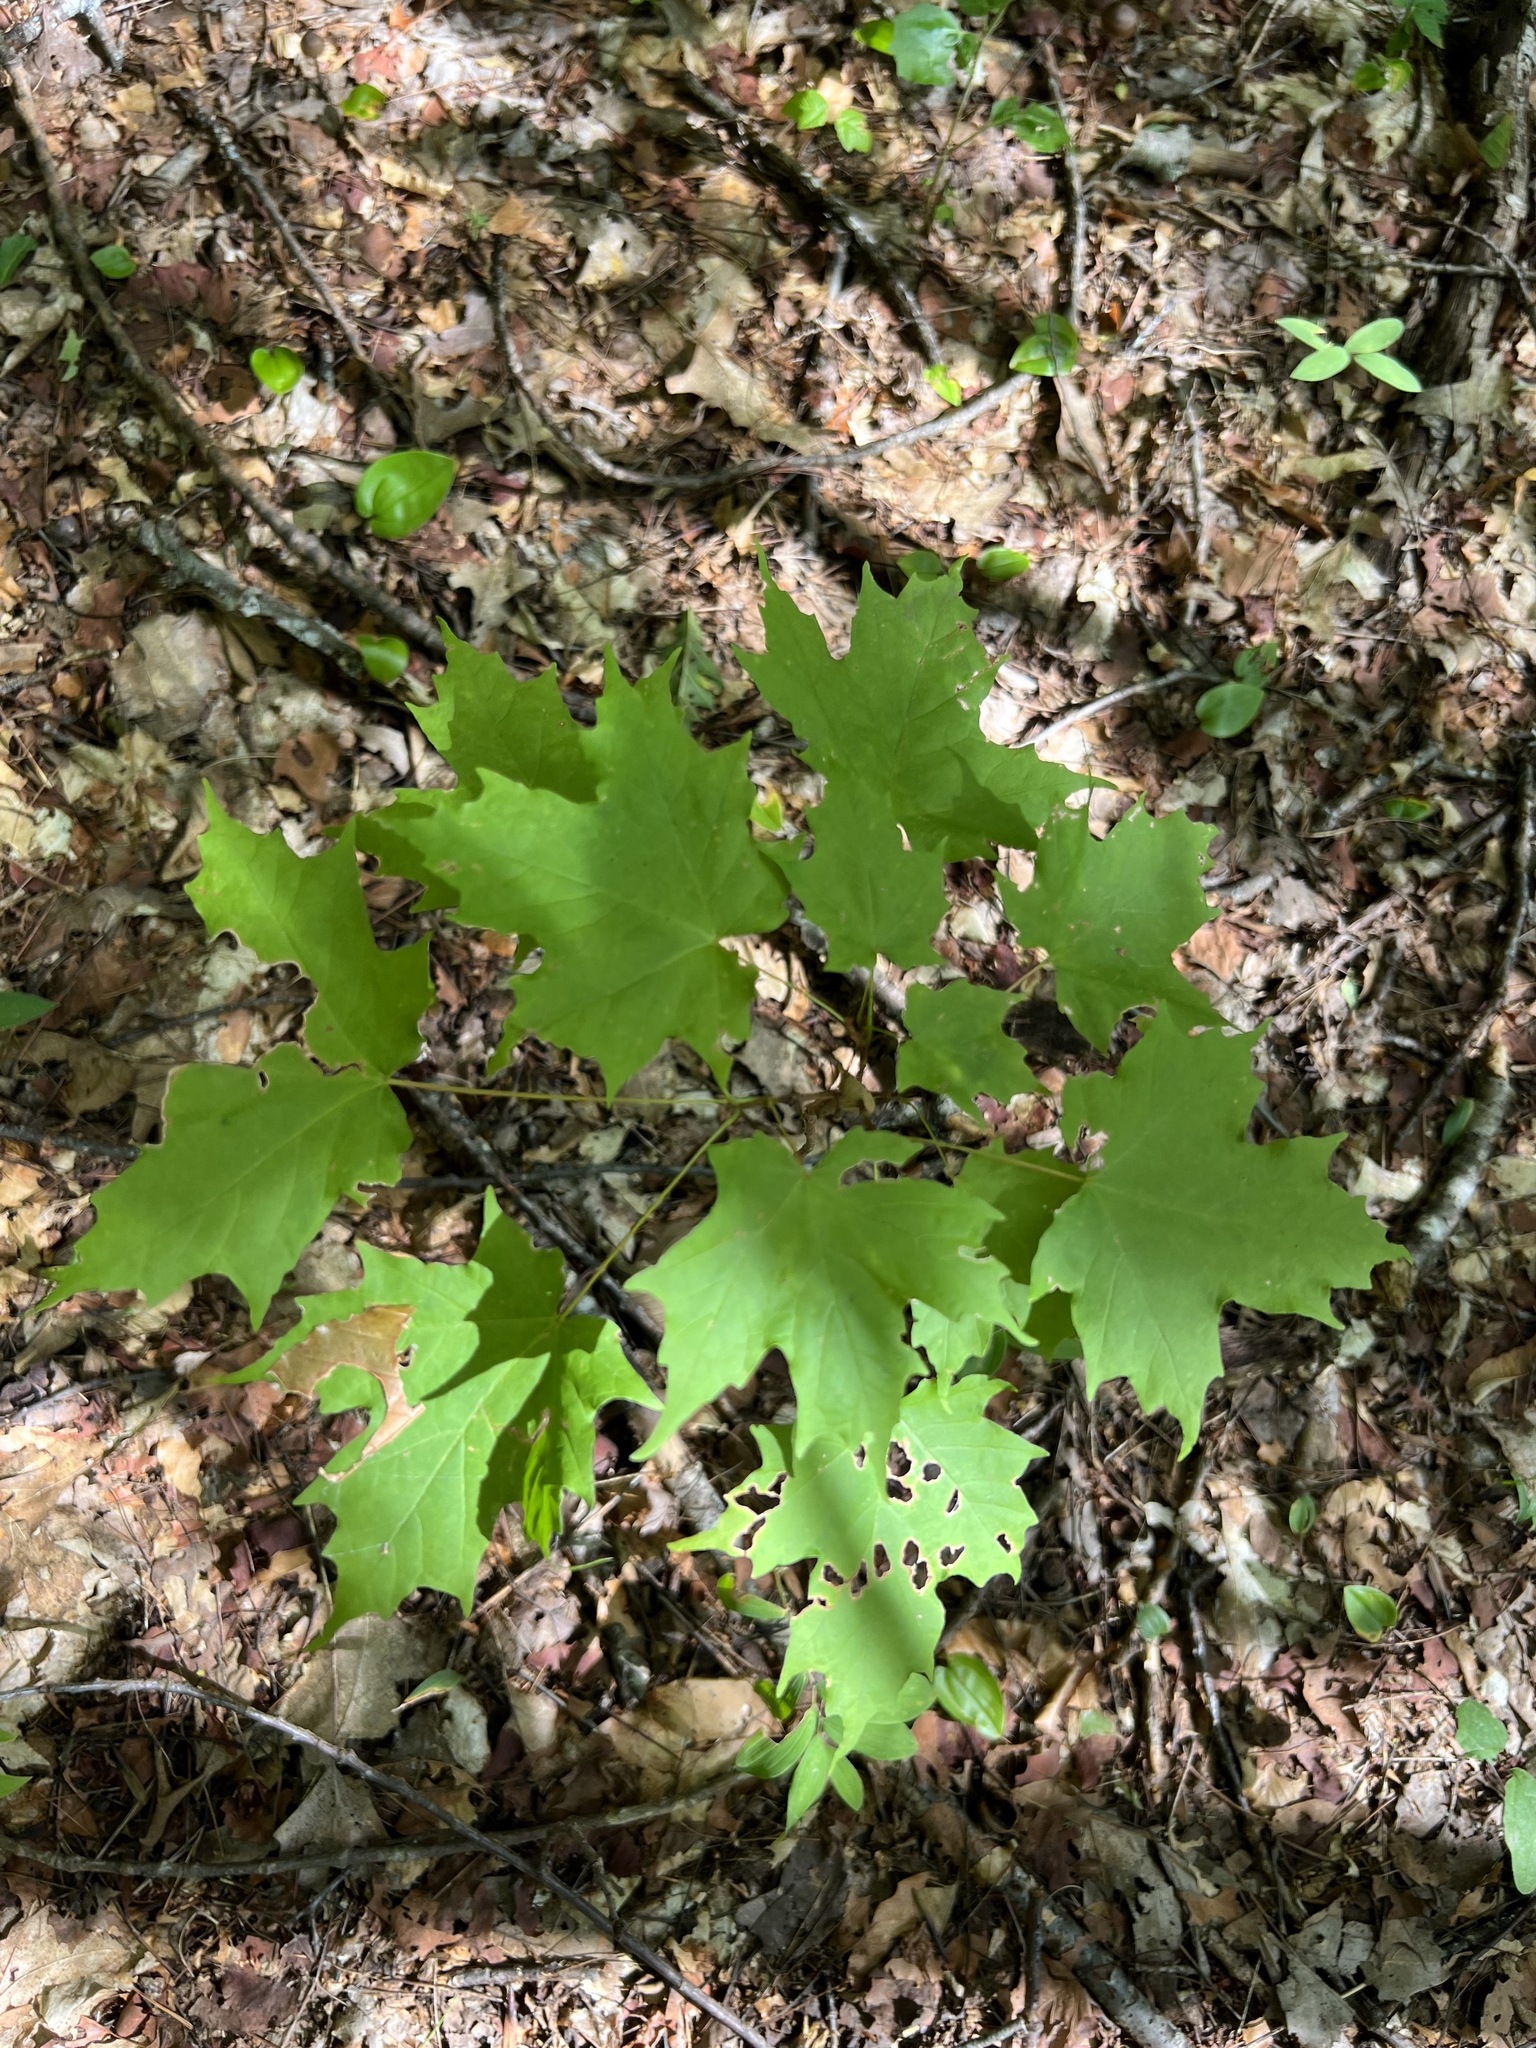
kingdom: Plantae
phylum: Tracheophyta
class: Magnoliopsida
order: Sapindales
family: Sapindaceae
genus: Acer
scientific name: Acer saccharum
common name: Sugar maple
